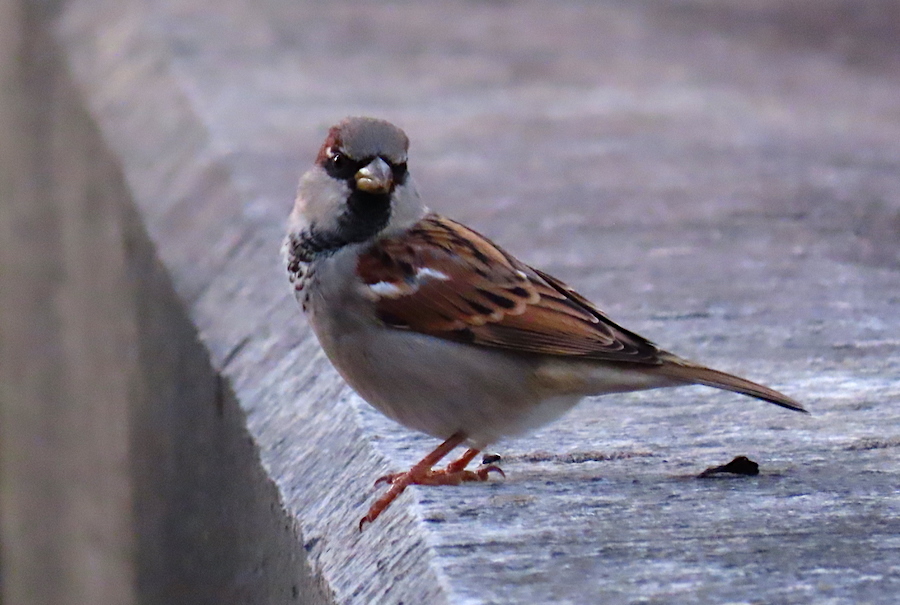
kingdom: Animalia
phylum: Chordata
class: Aves
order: Passeriformes
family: Passeridae
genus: Passer
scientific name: Passer domesticus
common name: House sparrow
